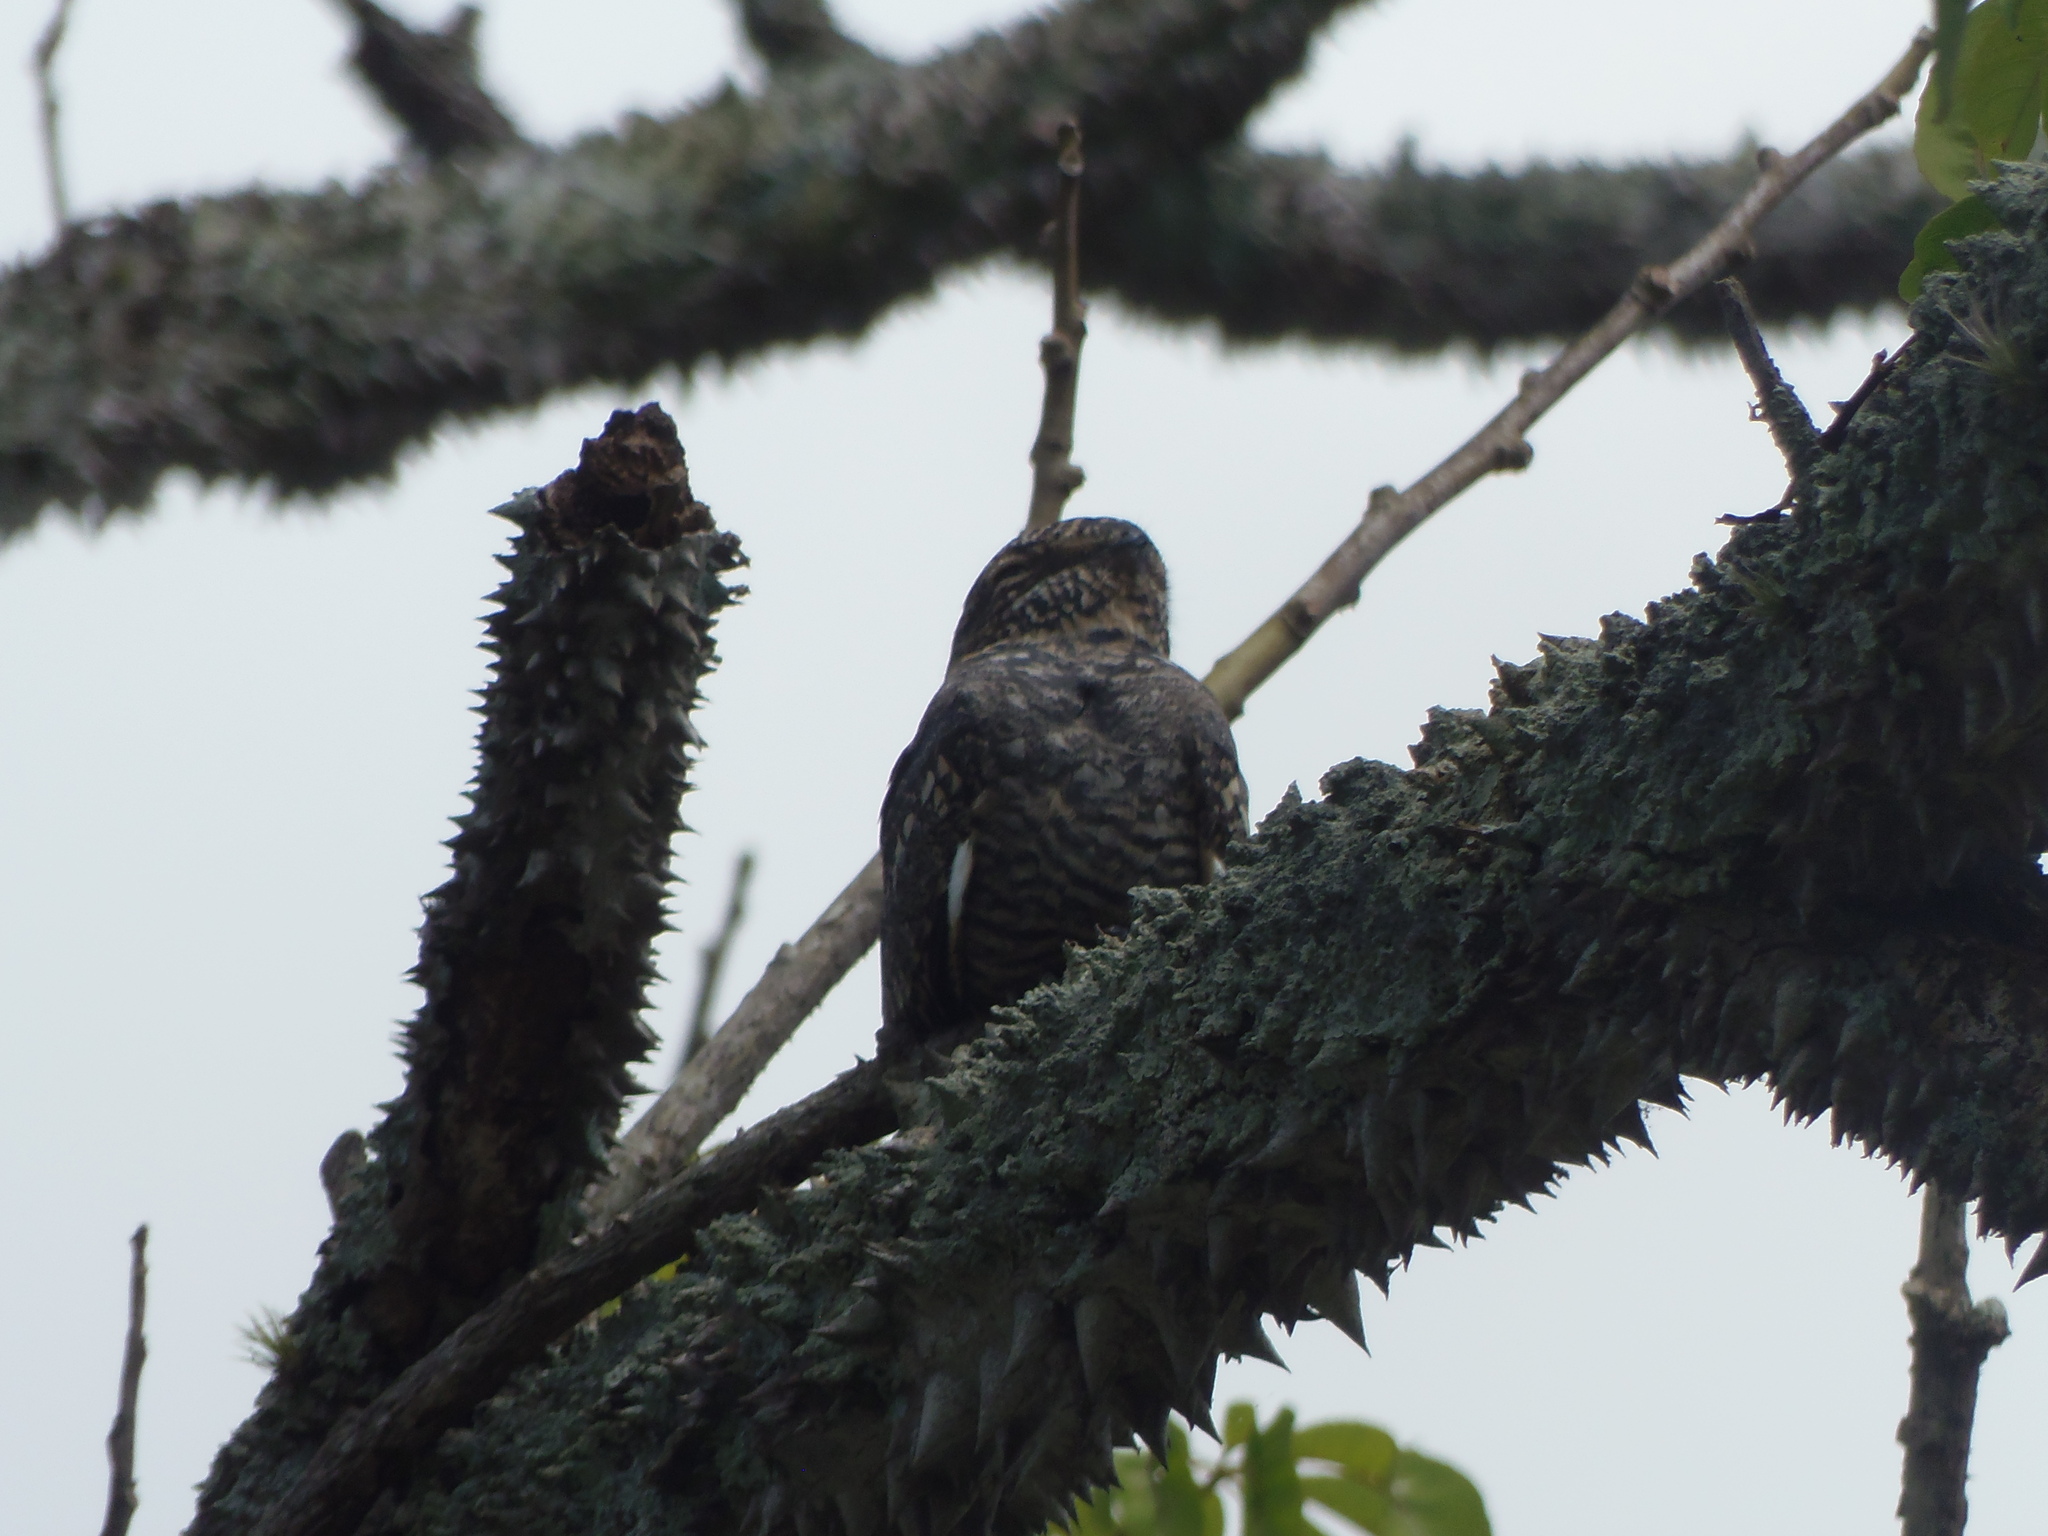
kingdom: Animalia
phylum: Chordata
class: Aves
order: Caprimulgiformes
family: Caprimulgidae
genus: Chordeiles
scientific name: Chordeiles acutipennis
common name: Lesser nighthawk
